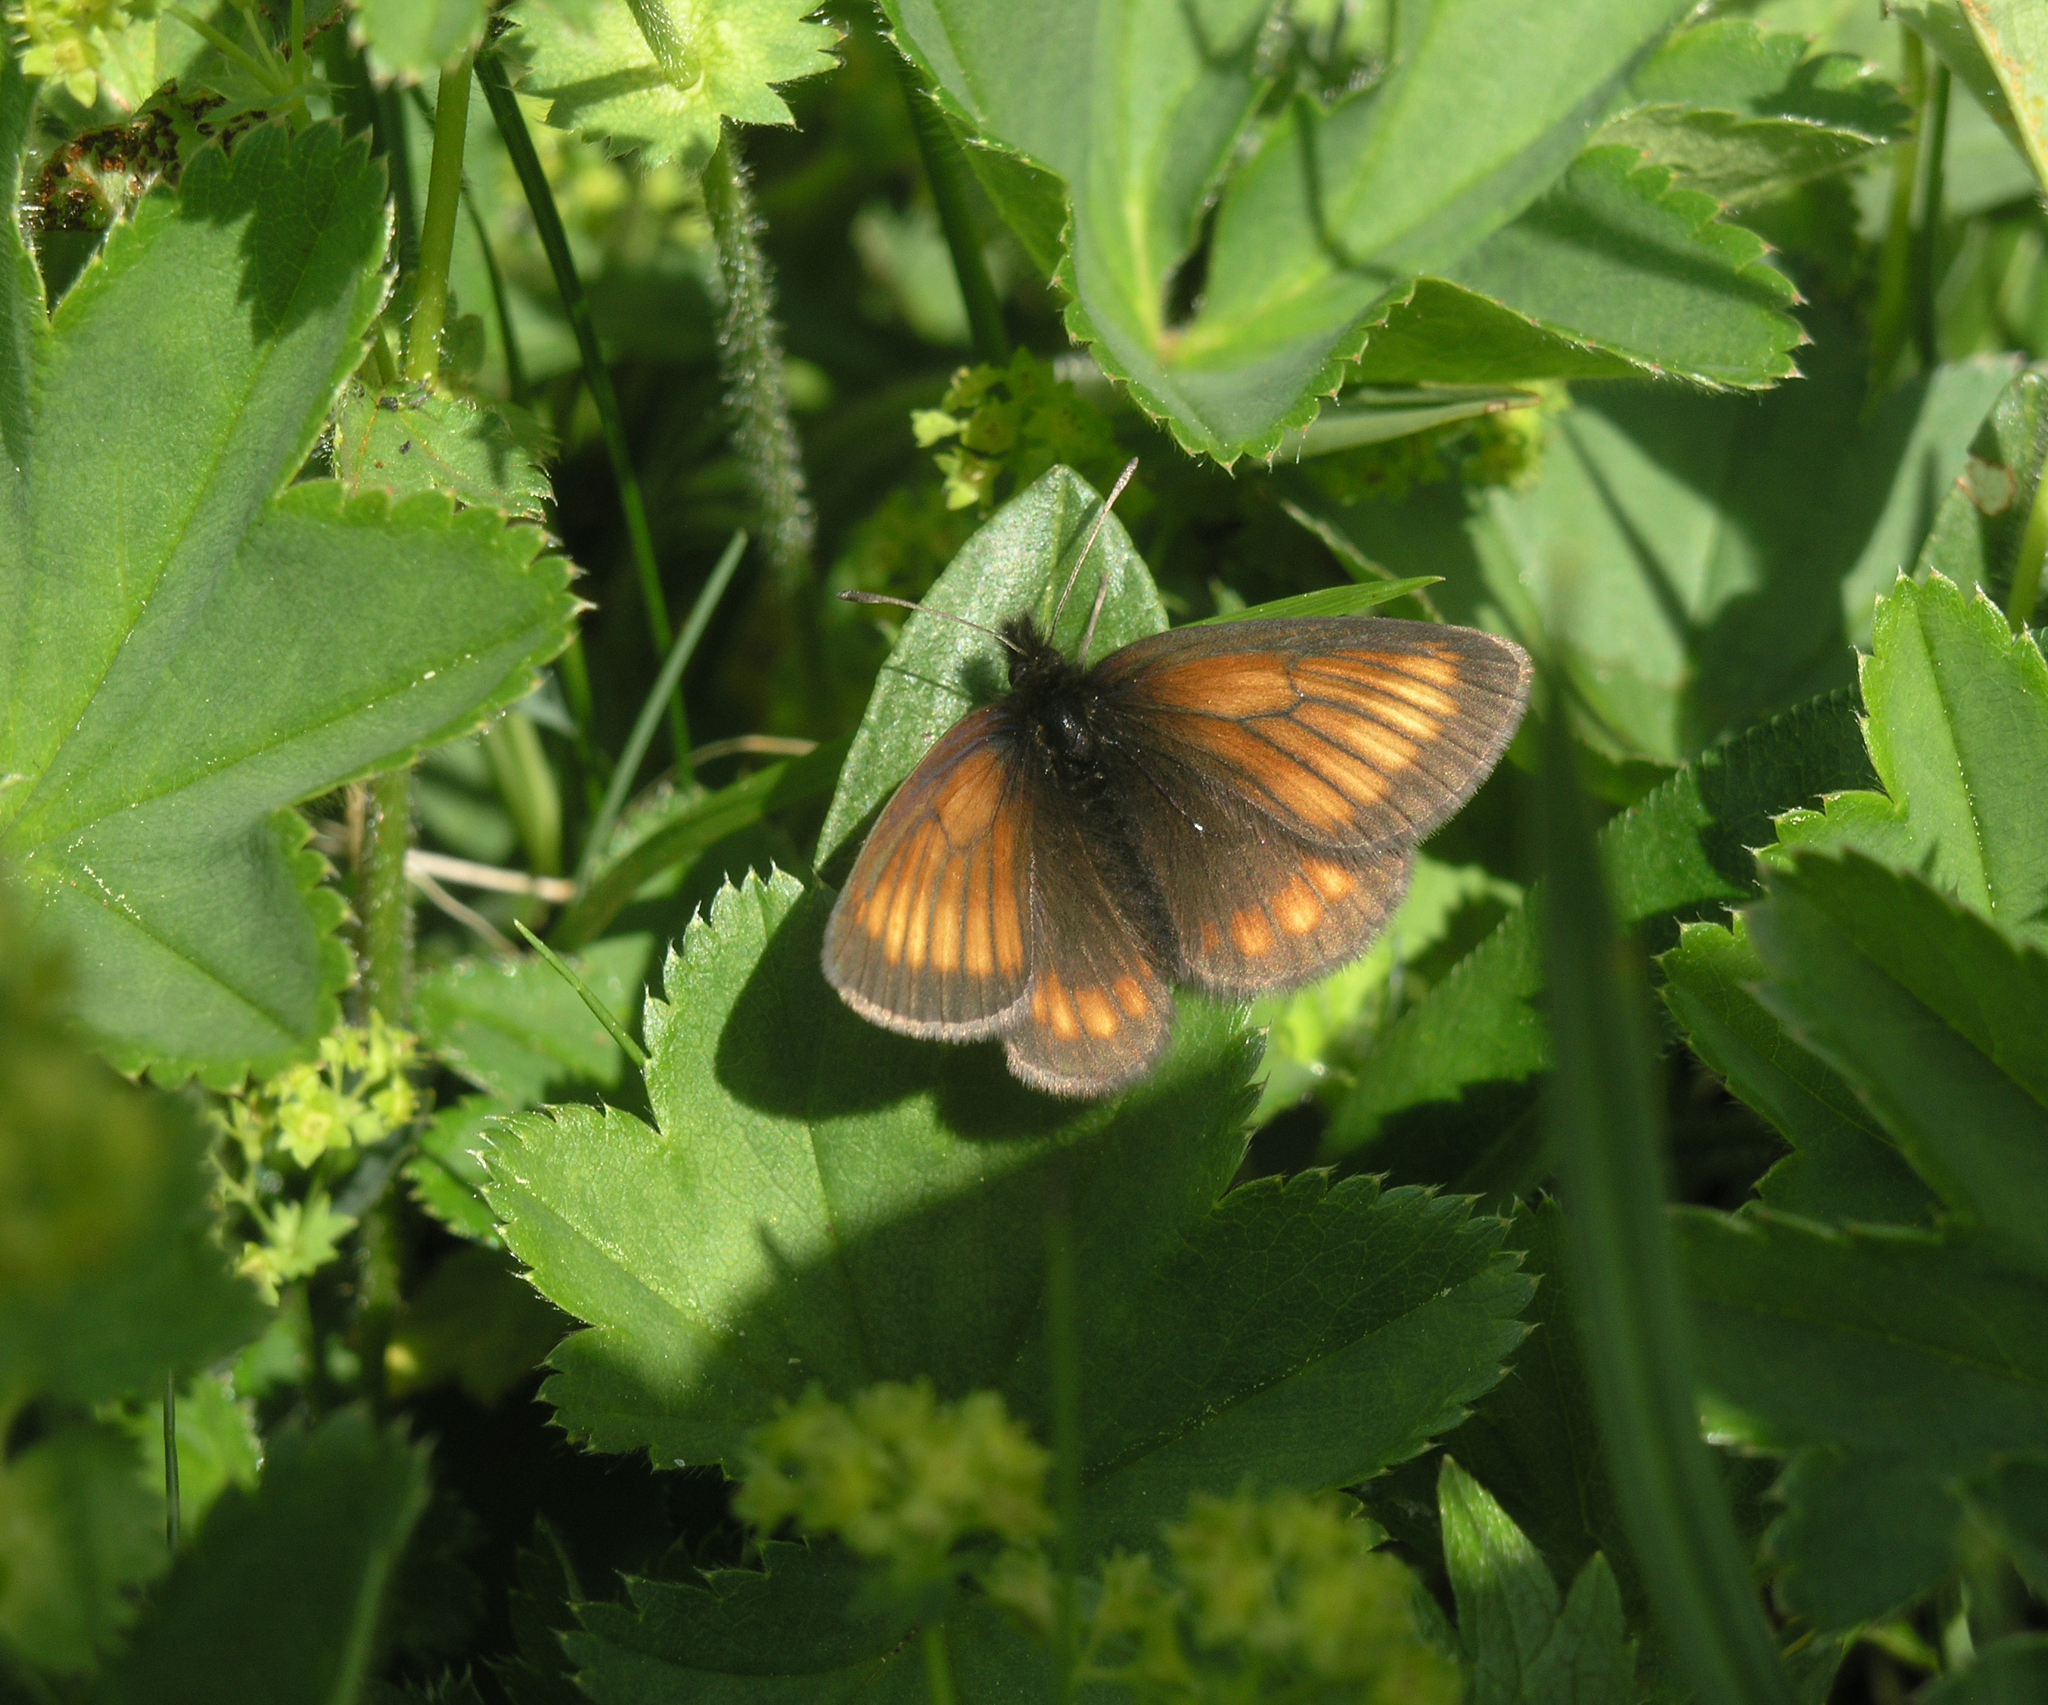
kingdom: Animalia
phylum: Arthropoda
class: Insecta
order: Lepidoptera
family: Nymphalidae
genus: Erebia
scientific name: Erebia kindermanni
